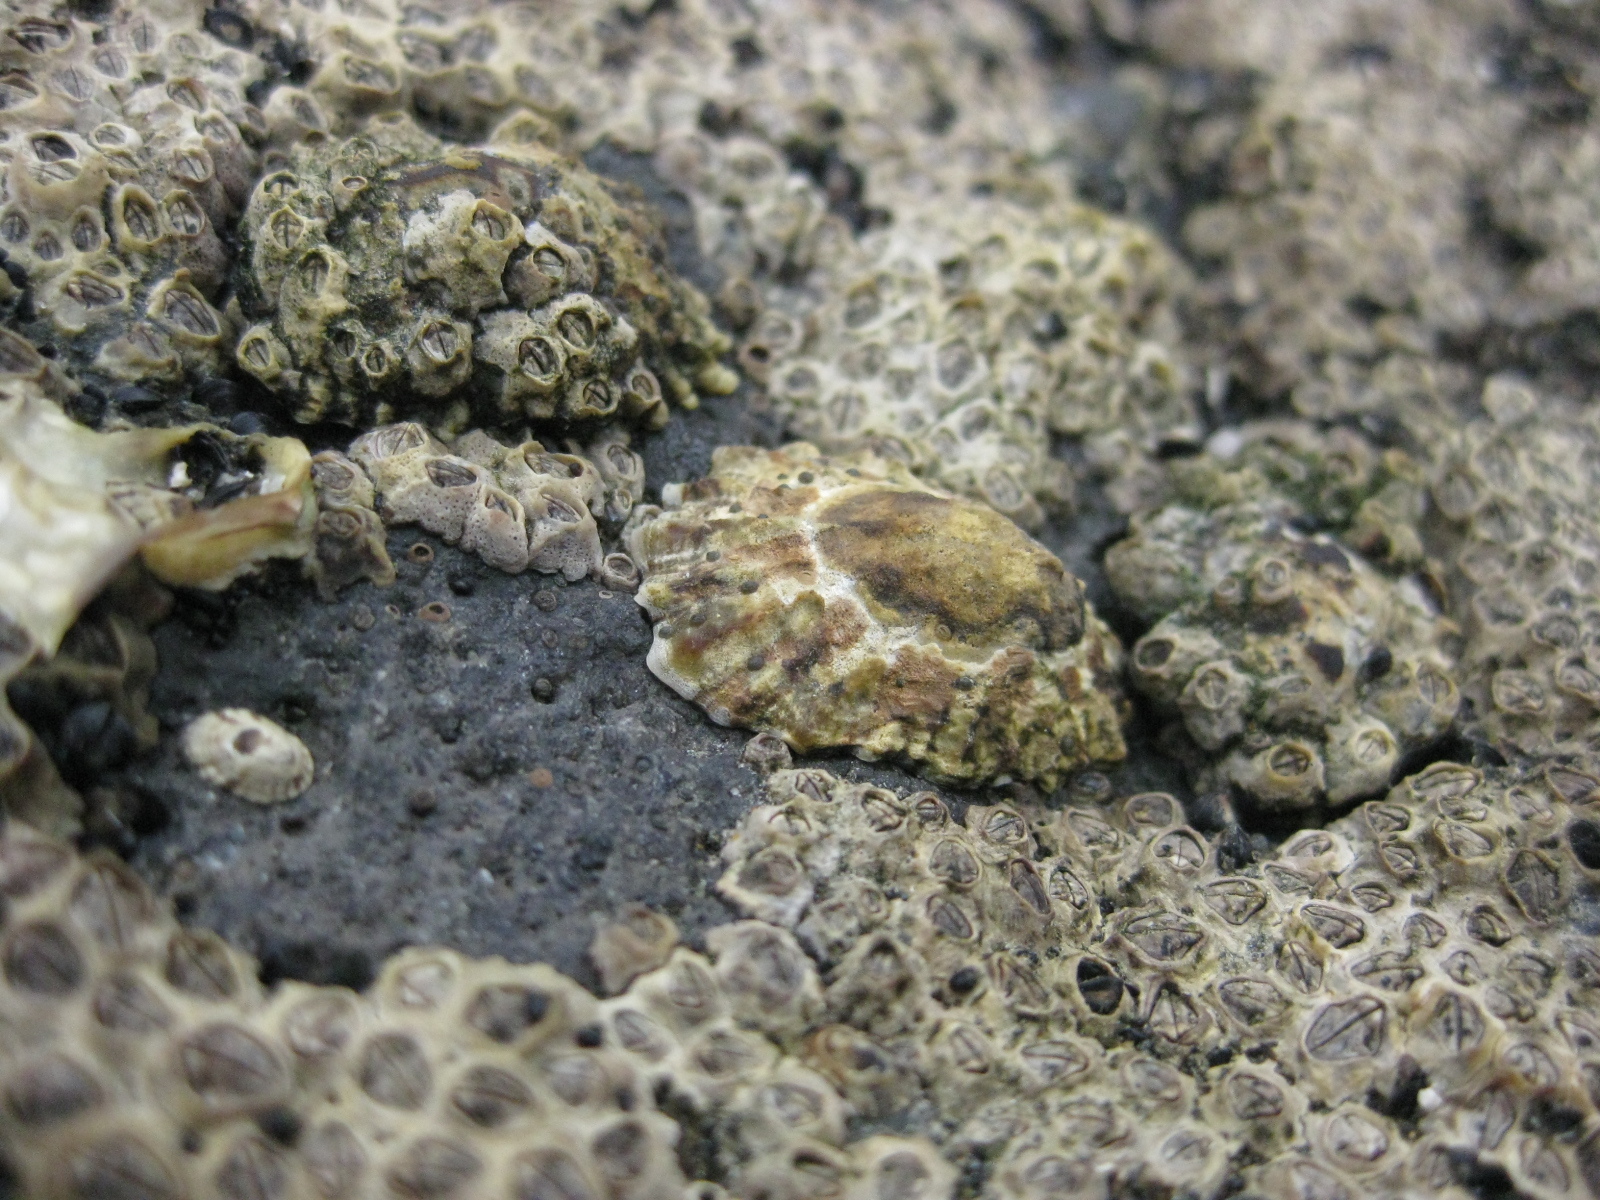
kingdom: Animalia
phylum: Arthropoda
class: Maxillopoda
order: Sessilia
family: Chthamalidae
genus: Chamaesipho
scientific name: Chamaesipho columna
